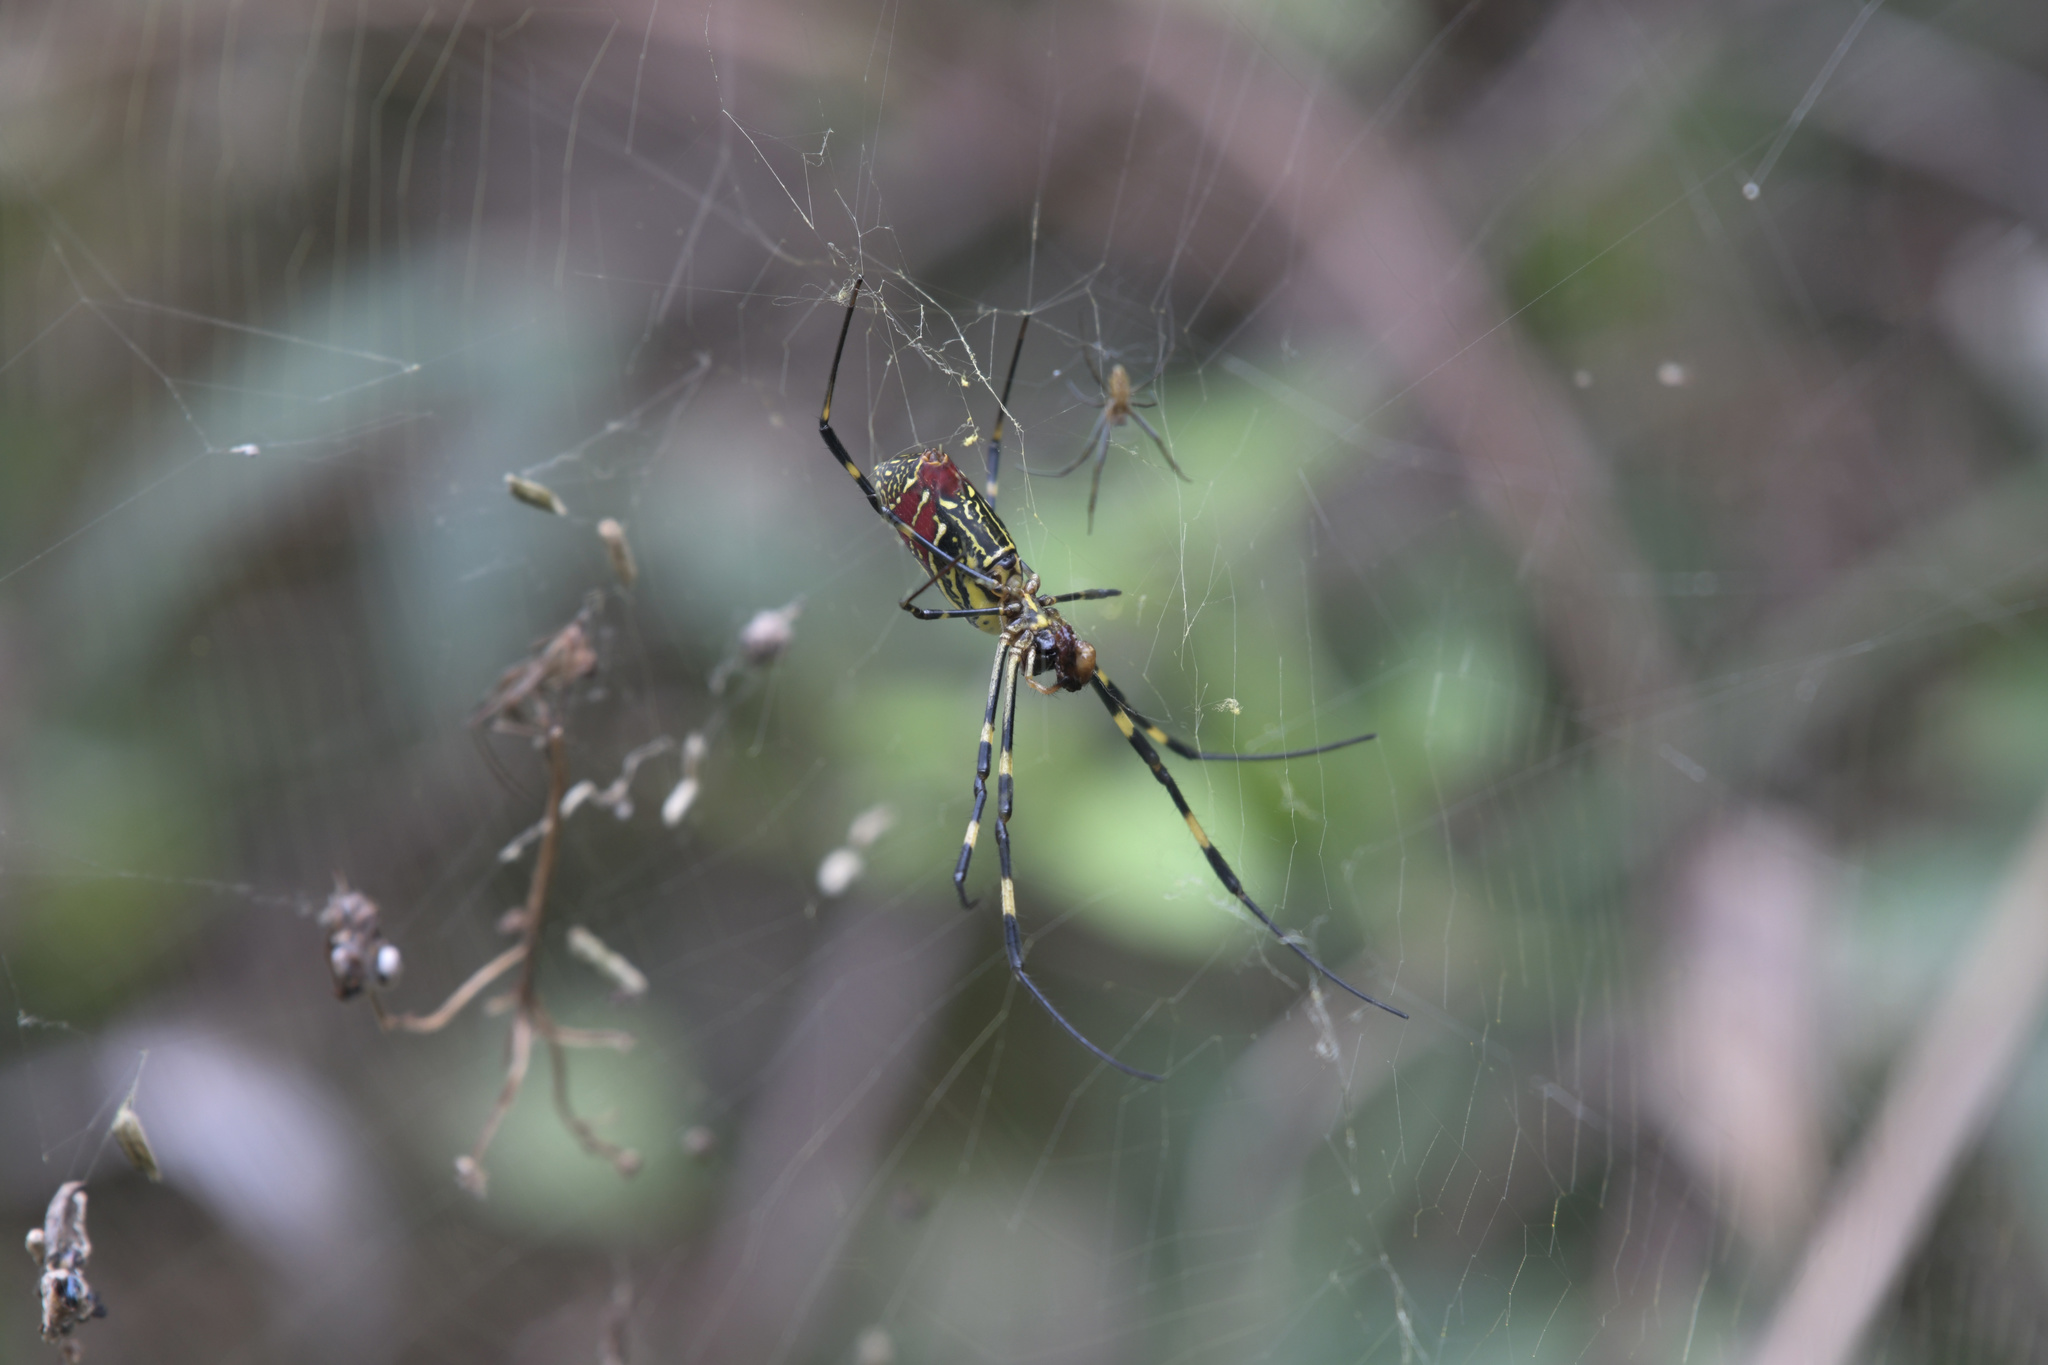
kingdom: Animalia
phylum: Arthropoda
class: Arachnida
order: Araneae
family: Araneidae
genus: Trichonephila
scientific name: Trichonephila clavata
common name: Jorō spider
